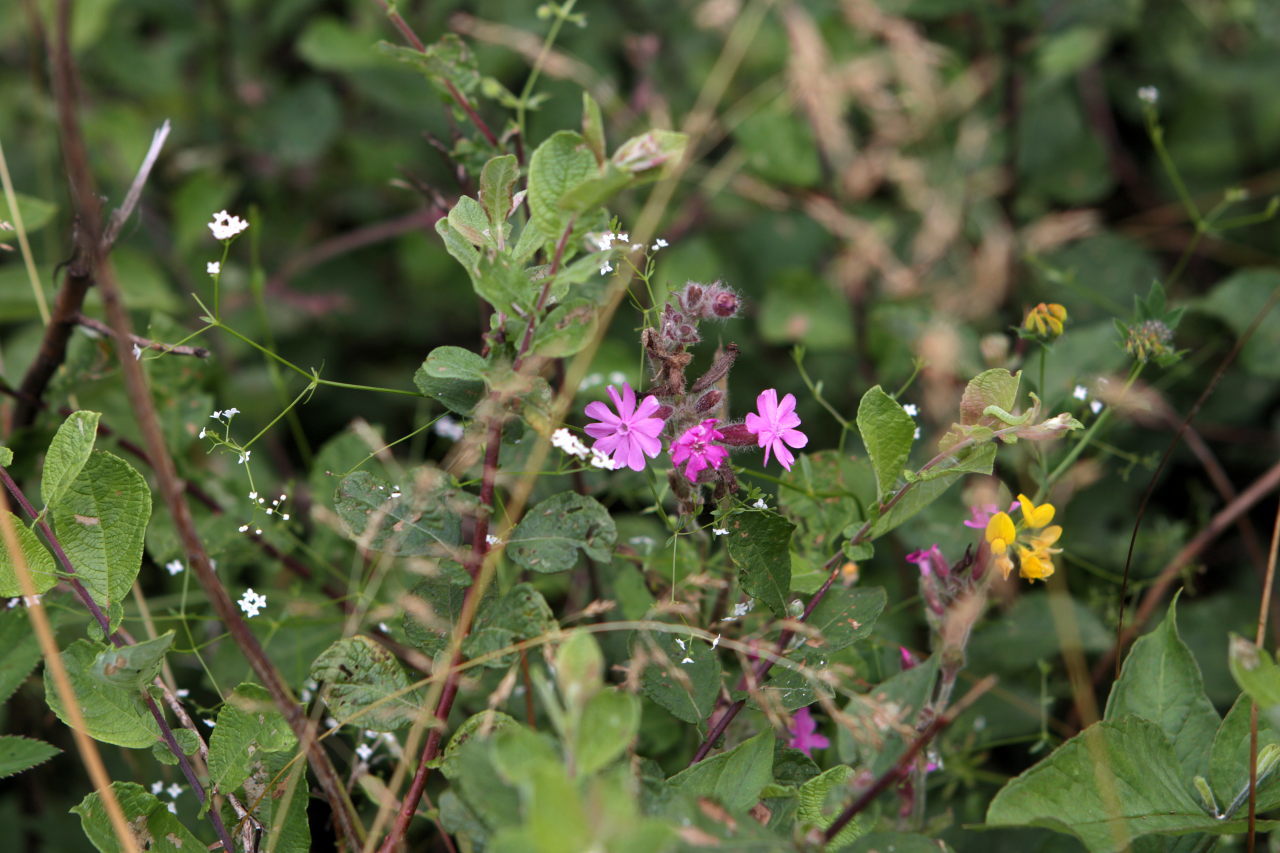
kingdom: Plantae
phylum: Tracheophyta
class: Magnoliopsida
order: Caryophyllales
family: Caryophyllaceae
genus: Silene
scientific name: Silene dioica
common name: Red campion
